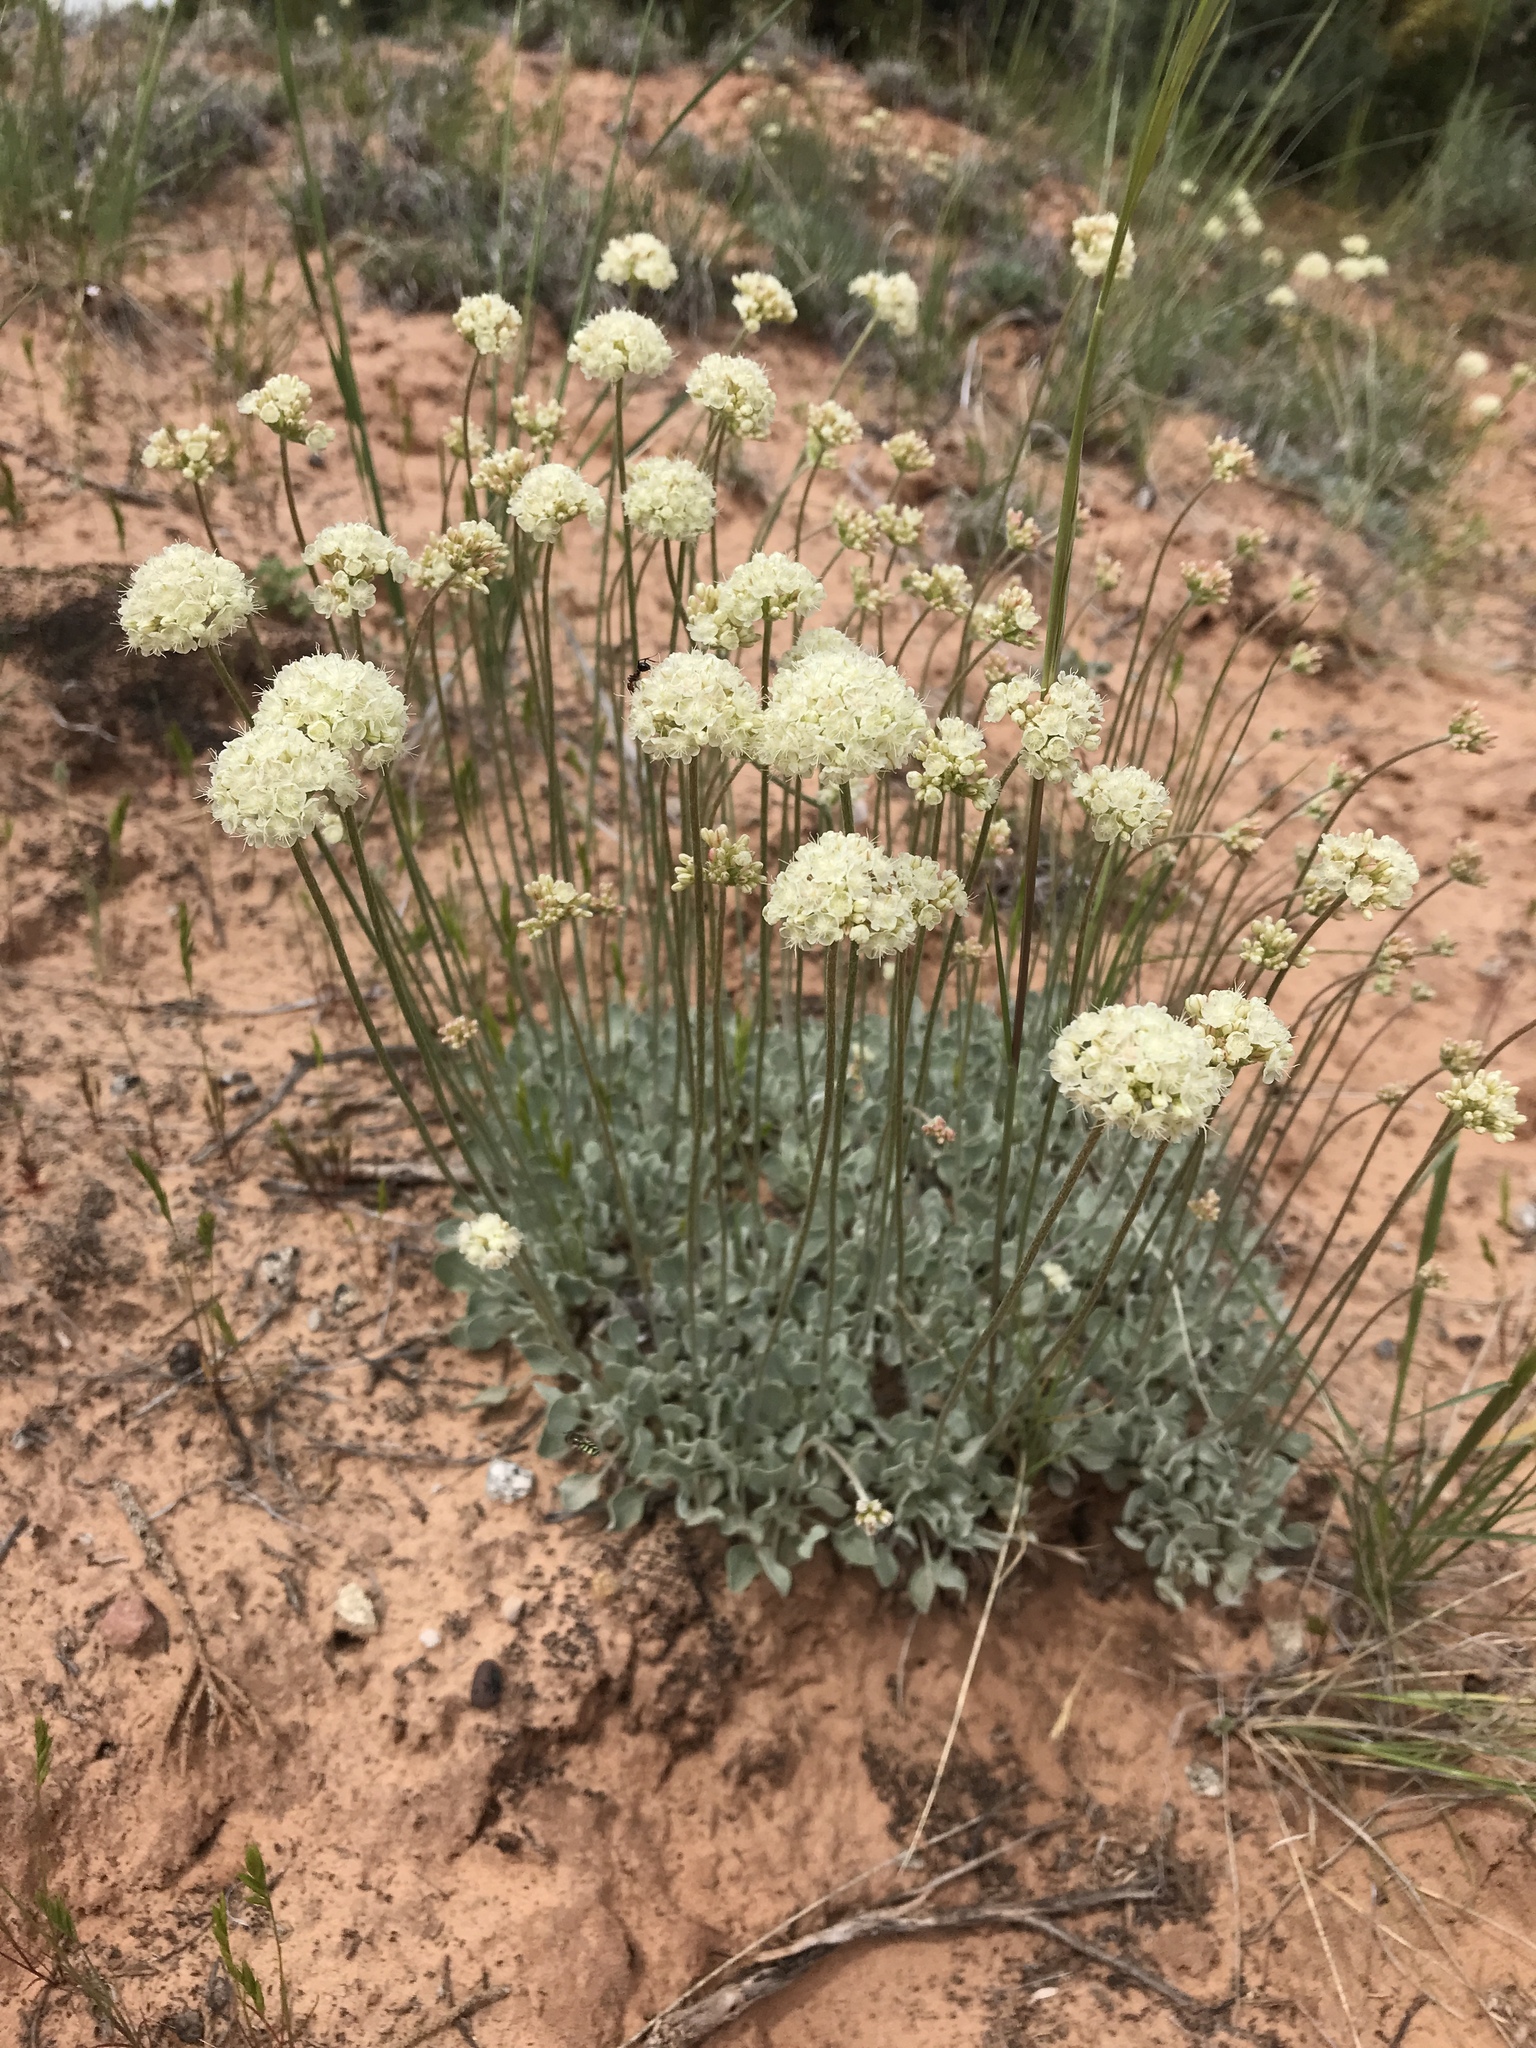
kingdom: Plantae
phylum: Tracheophyta
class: Magnoliopsida
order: Caryophyllales
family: Polygonaceae
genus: Eriogonum
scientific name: Eriogonum ovalifolium
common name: Cushion buckwheat
